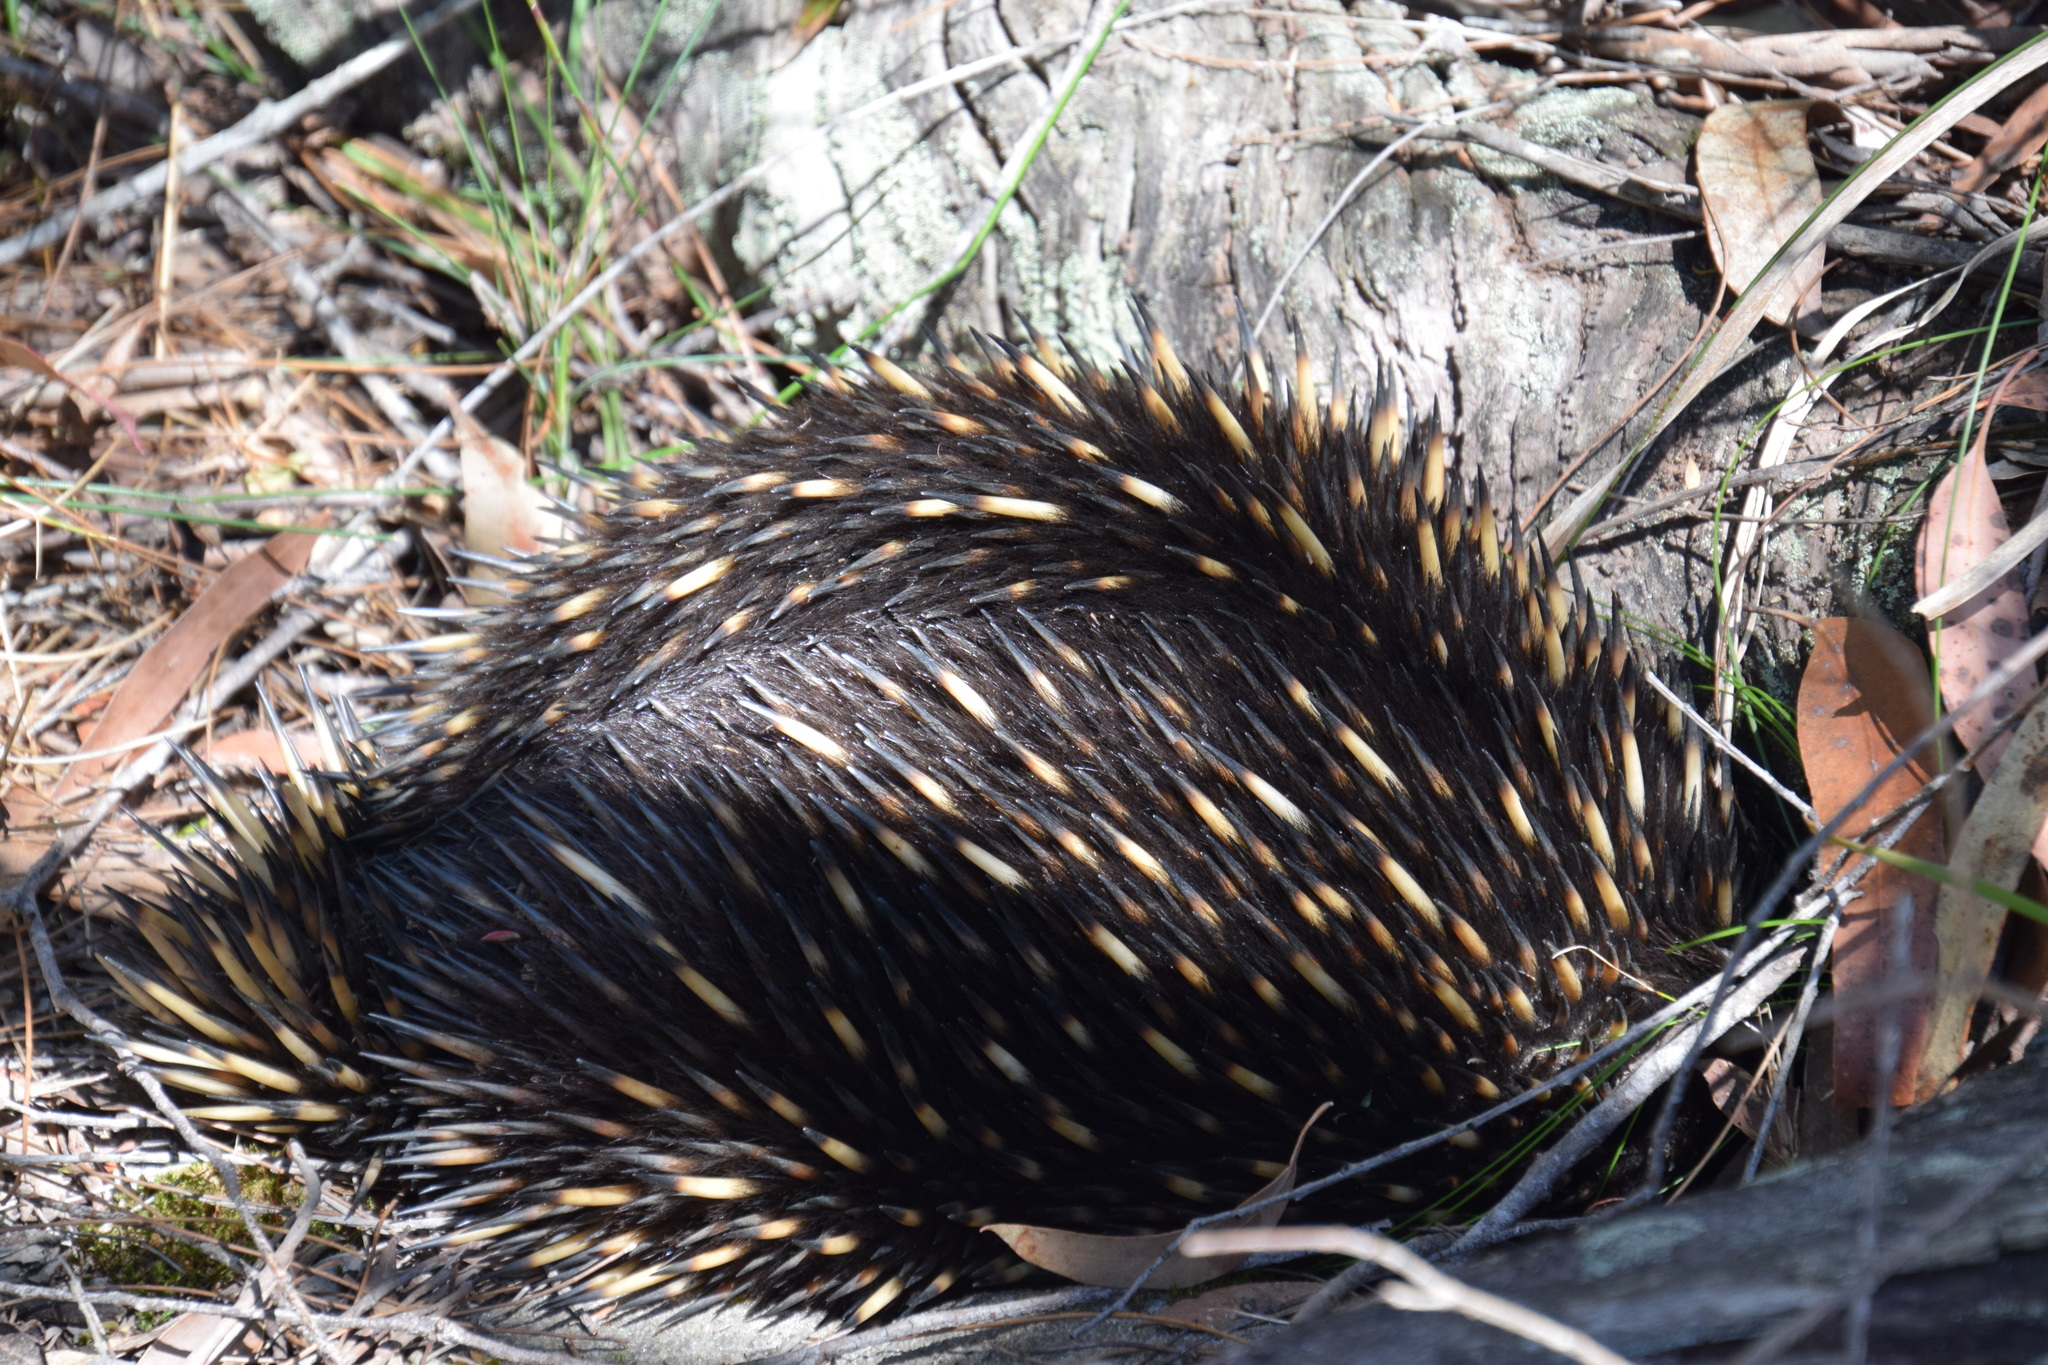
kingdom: Animalia
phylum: Chordata
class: Mammalia
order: Monotremata
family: Tachyglossidae
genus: Tachyglossus
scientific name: Tachyglossus aculeatus
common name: Short-beaked echidna
